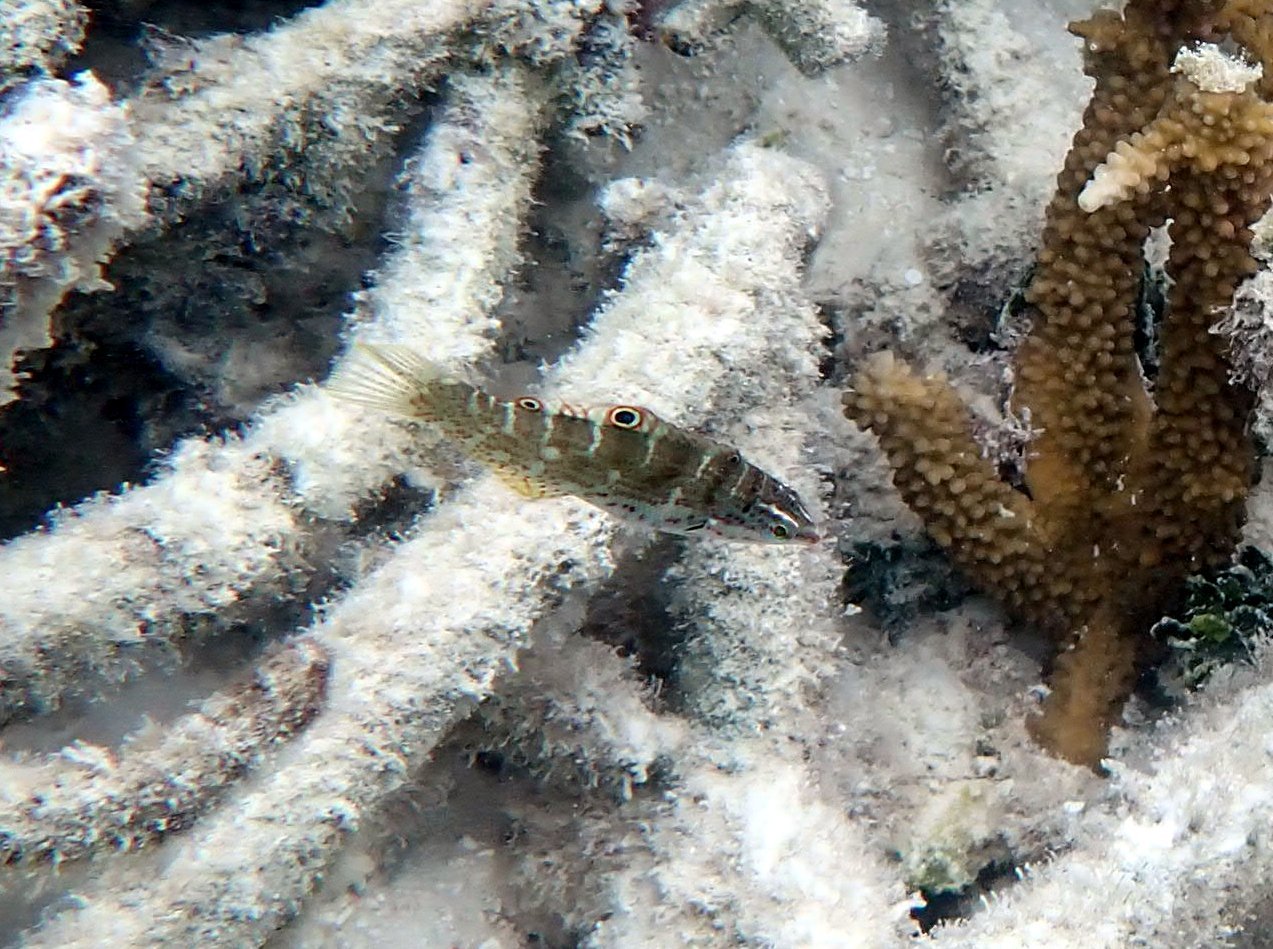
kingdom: Animalia
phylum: Chordata
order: Perciformes
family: Labridae
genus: Coris
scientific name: Coris batuensis
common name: Batu coris
